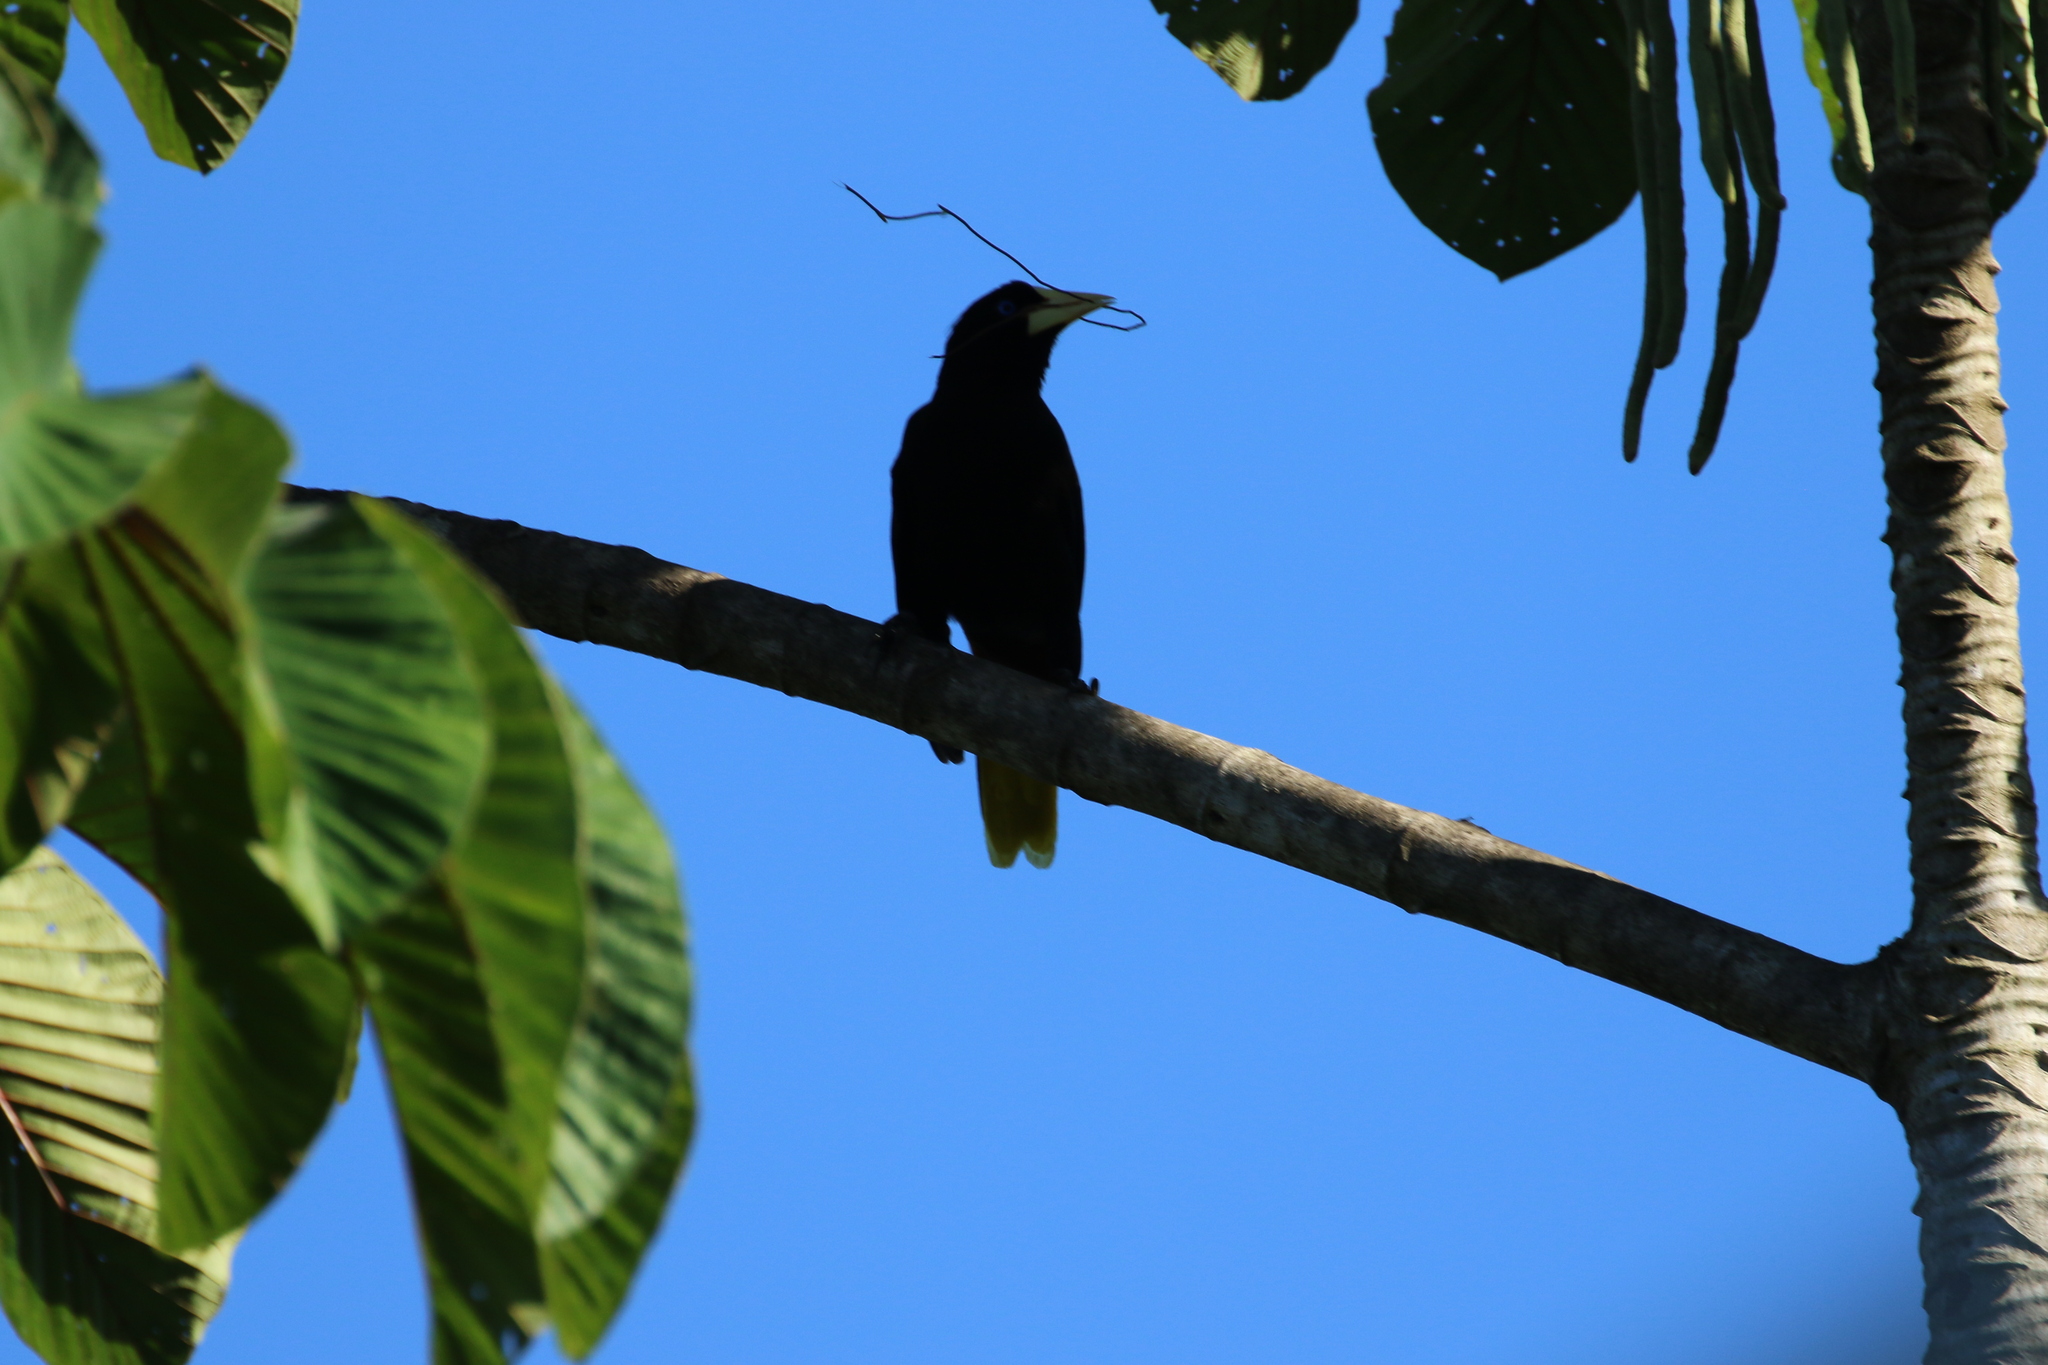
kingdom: Animalia
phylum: Chordata
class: Aves
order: Passeriformes
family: Icteridae
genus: Psarocolius
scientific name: Psarocolius wagleri
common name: Chestnut-headed oropendola
